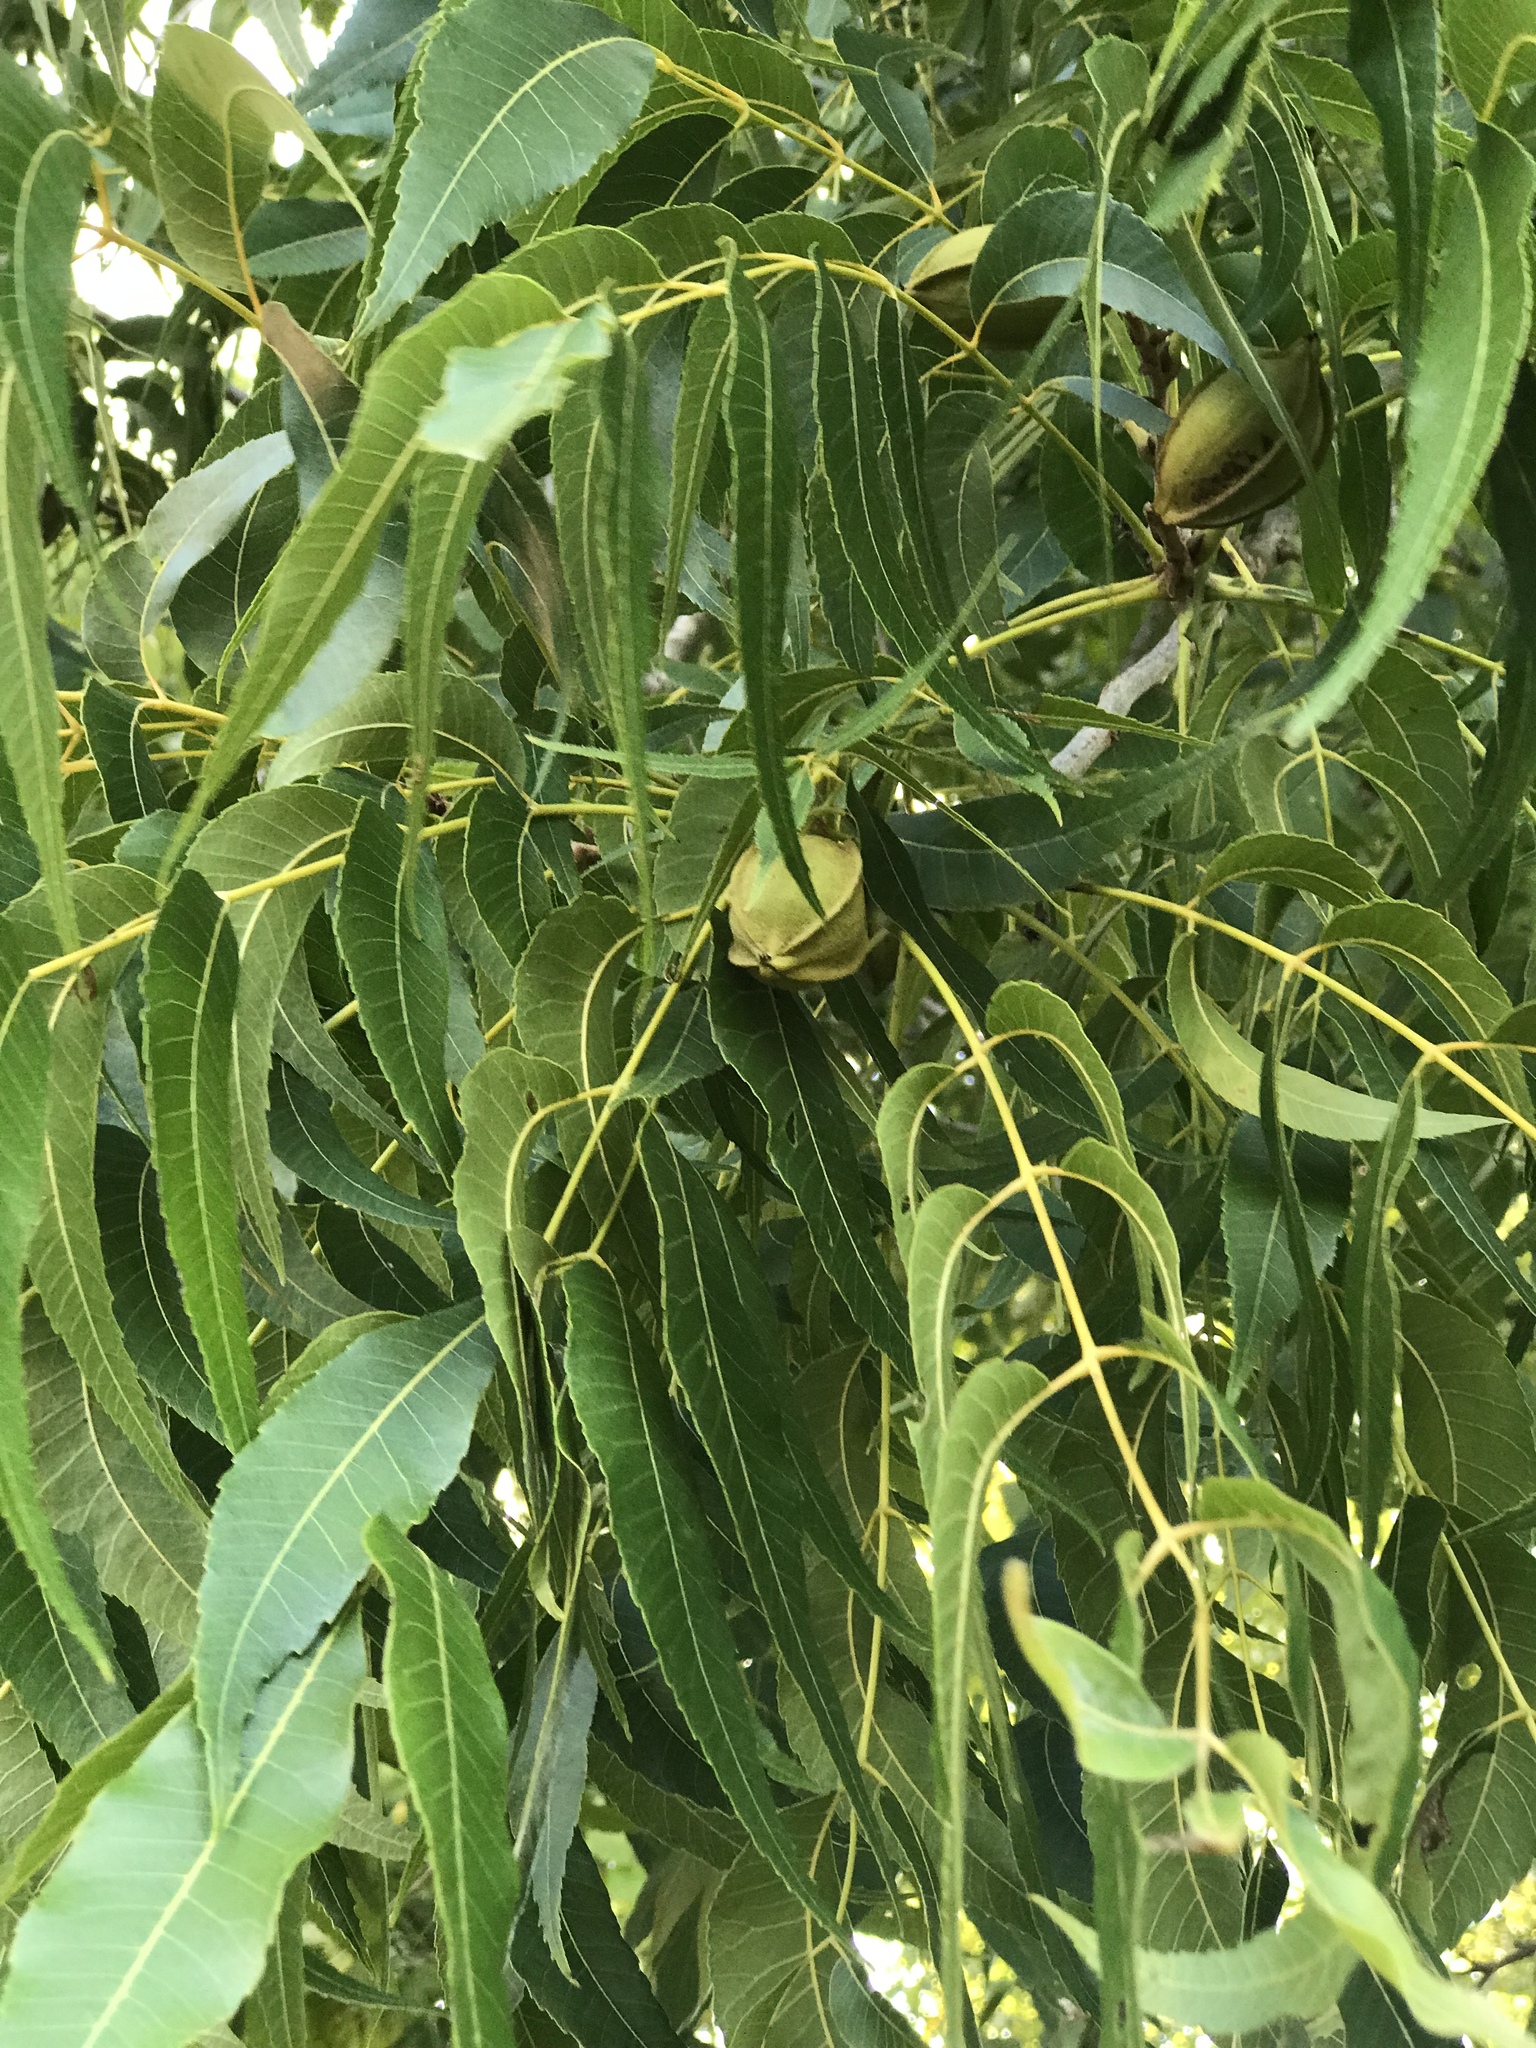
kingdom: Plantae
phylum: Tracheophyta
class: Magnoliopsida
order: Fagales
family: Juglandaceae
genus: Carya
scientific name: Carya illinoinensis
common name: Pecan
